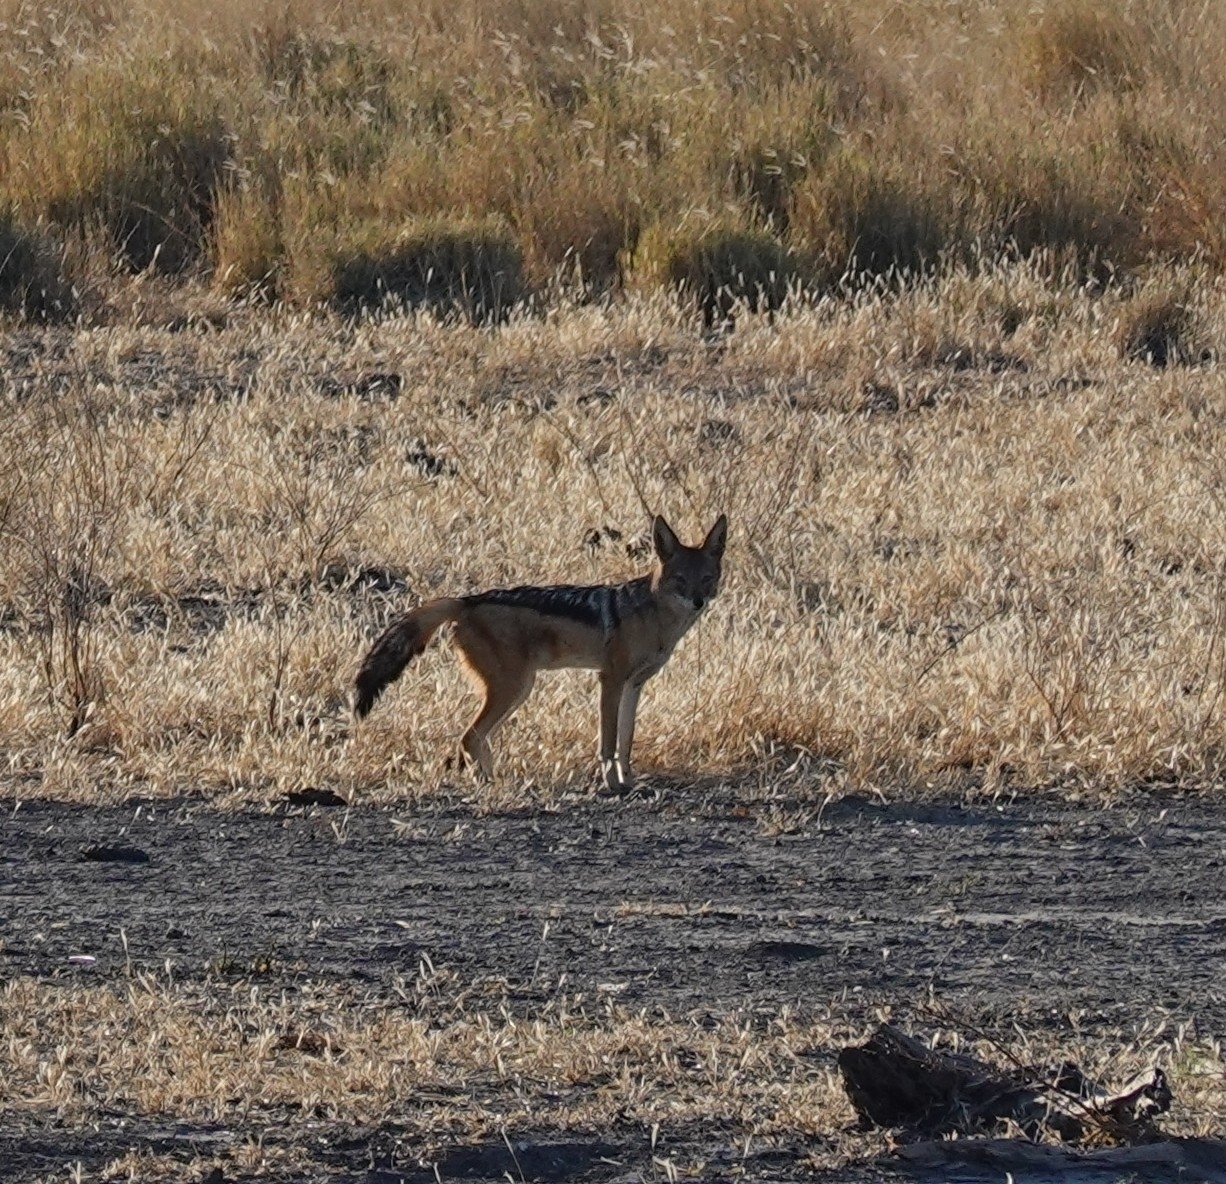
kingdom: Animalia
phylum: Chordata
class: Mammalia
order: Carnivora
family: Canidae
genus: Lupulella
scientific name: Lupulella
